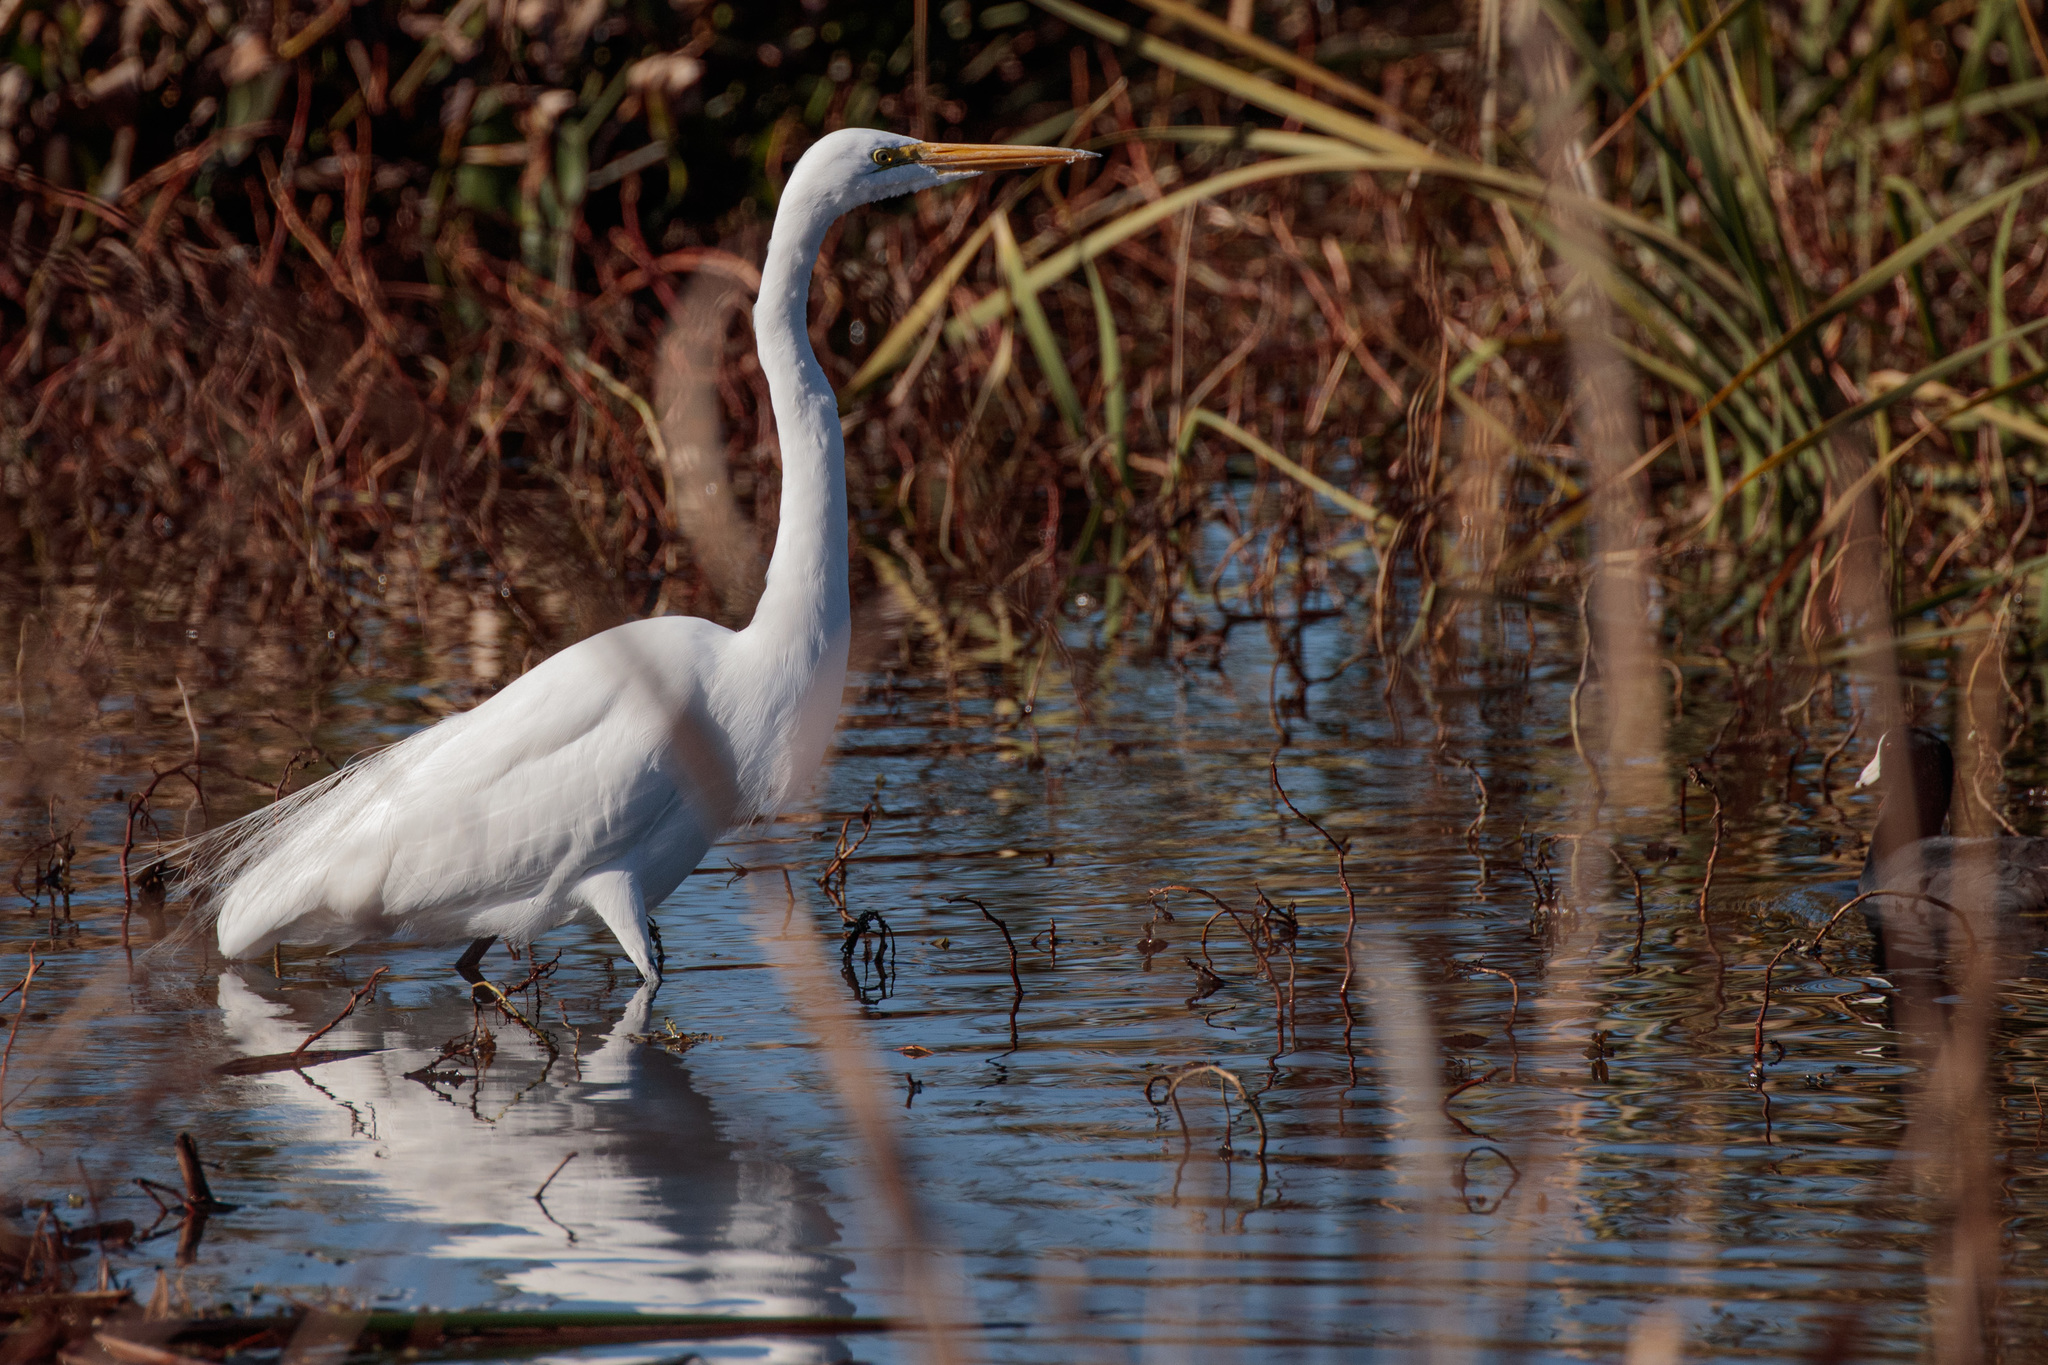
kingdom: Animalia
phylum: Chordata
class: Aves
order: Pelecaniformes
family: Ardeidae
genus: Ardea
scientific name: Ardea alba
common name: Great egret
